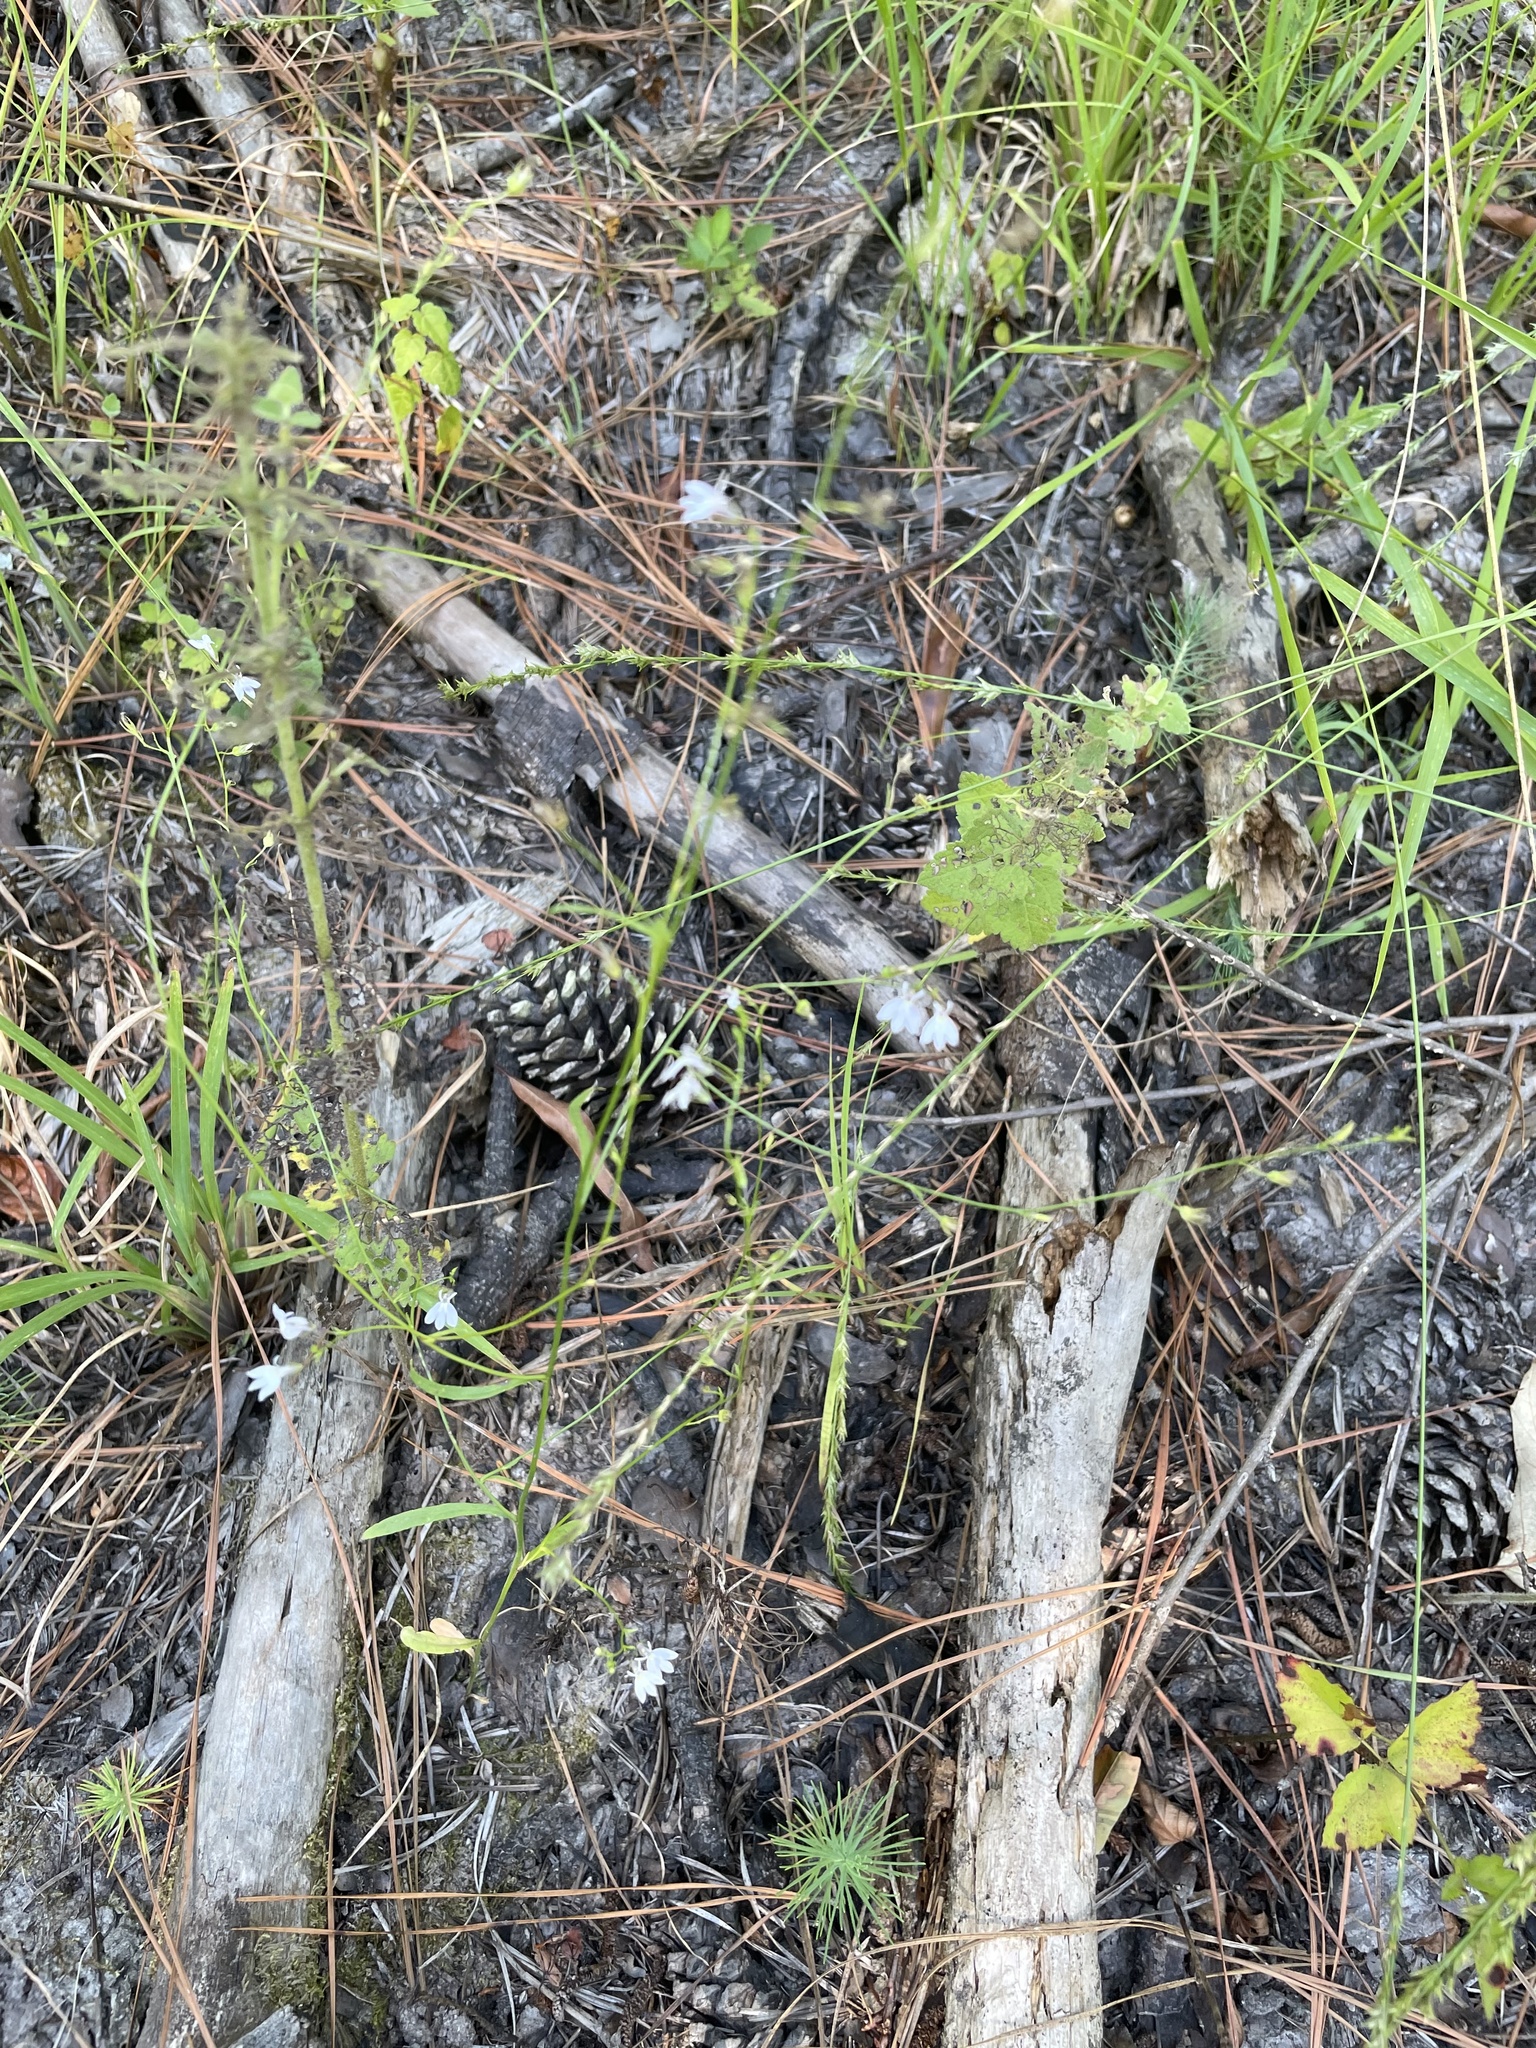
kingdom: Plantae
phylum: Tracheophyta
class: Magnoliopsida
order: Asterales
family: Campanulaceae
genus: Lobelia
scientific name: Lobelia nuttallii
